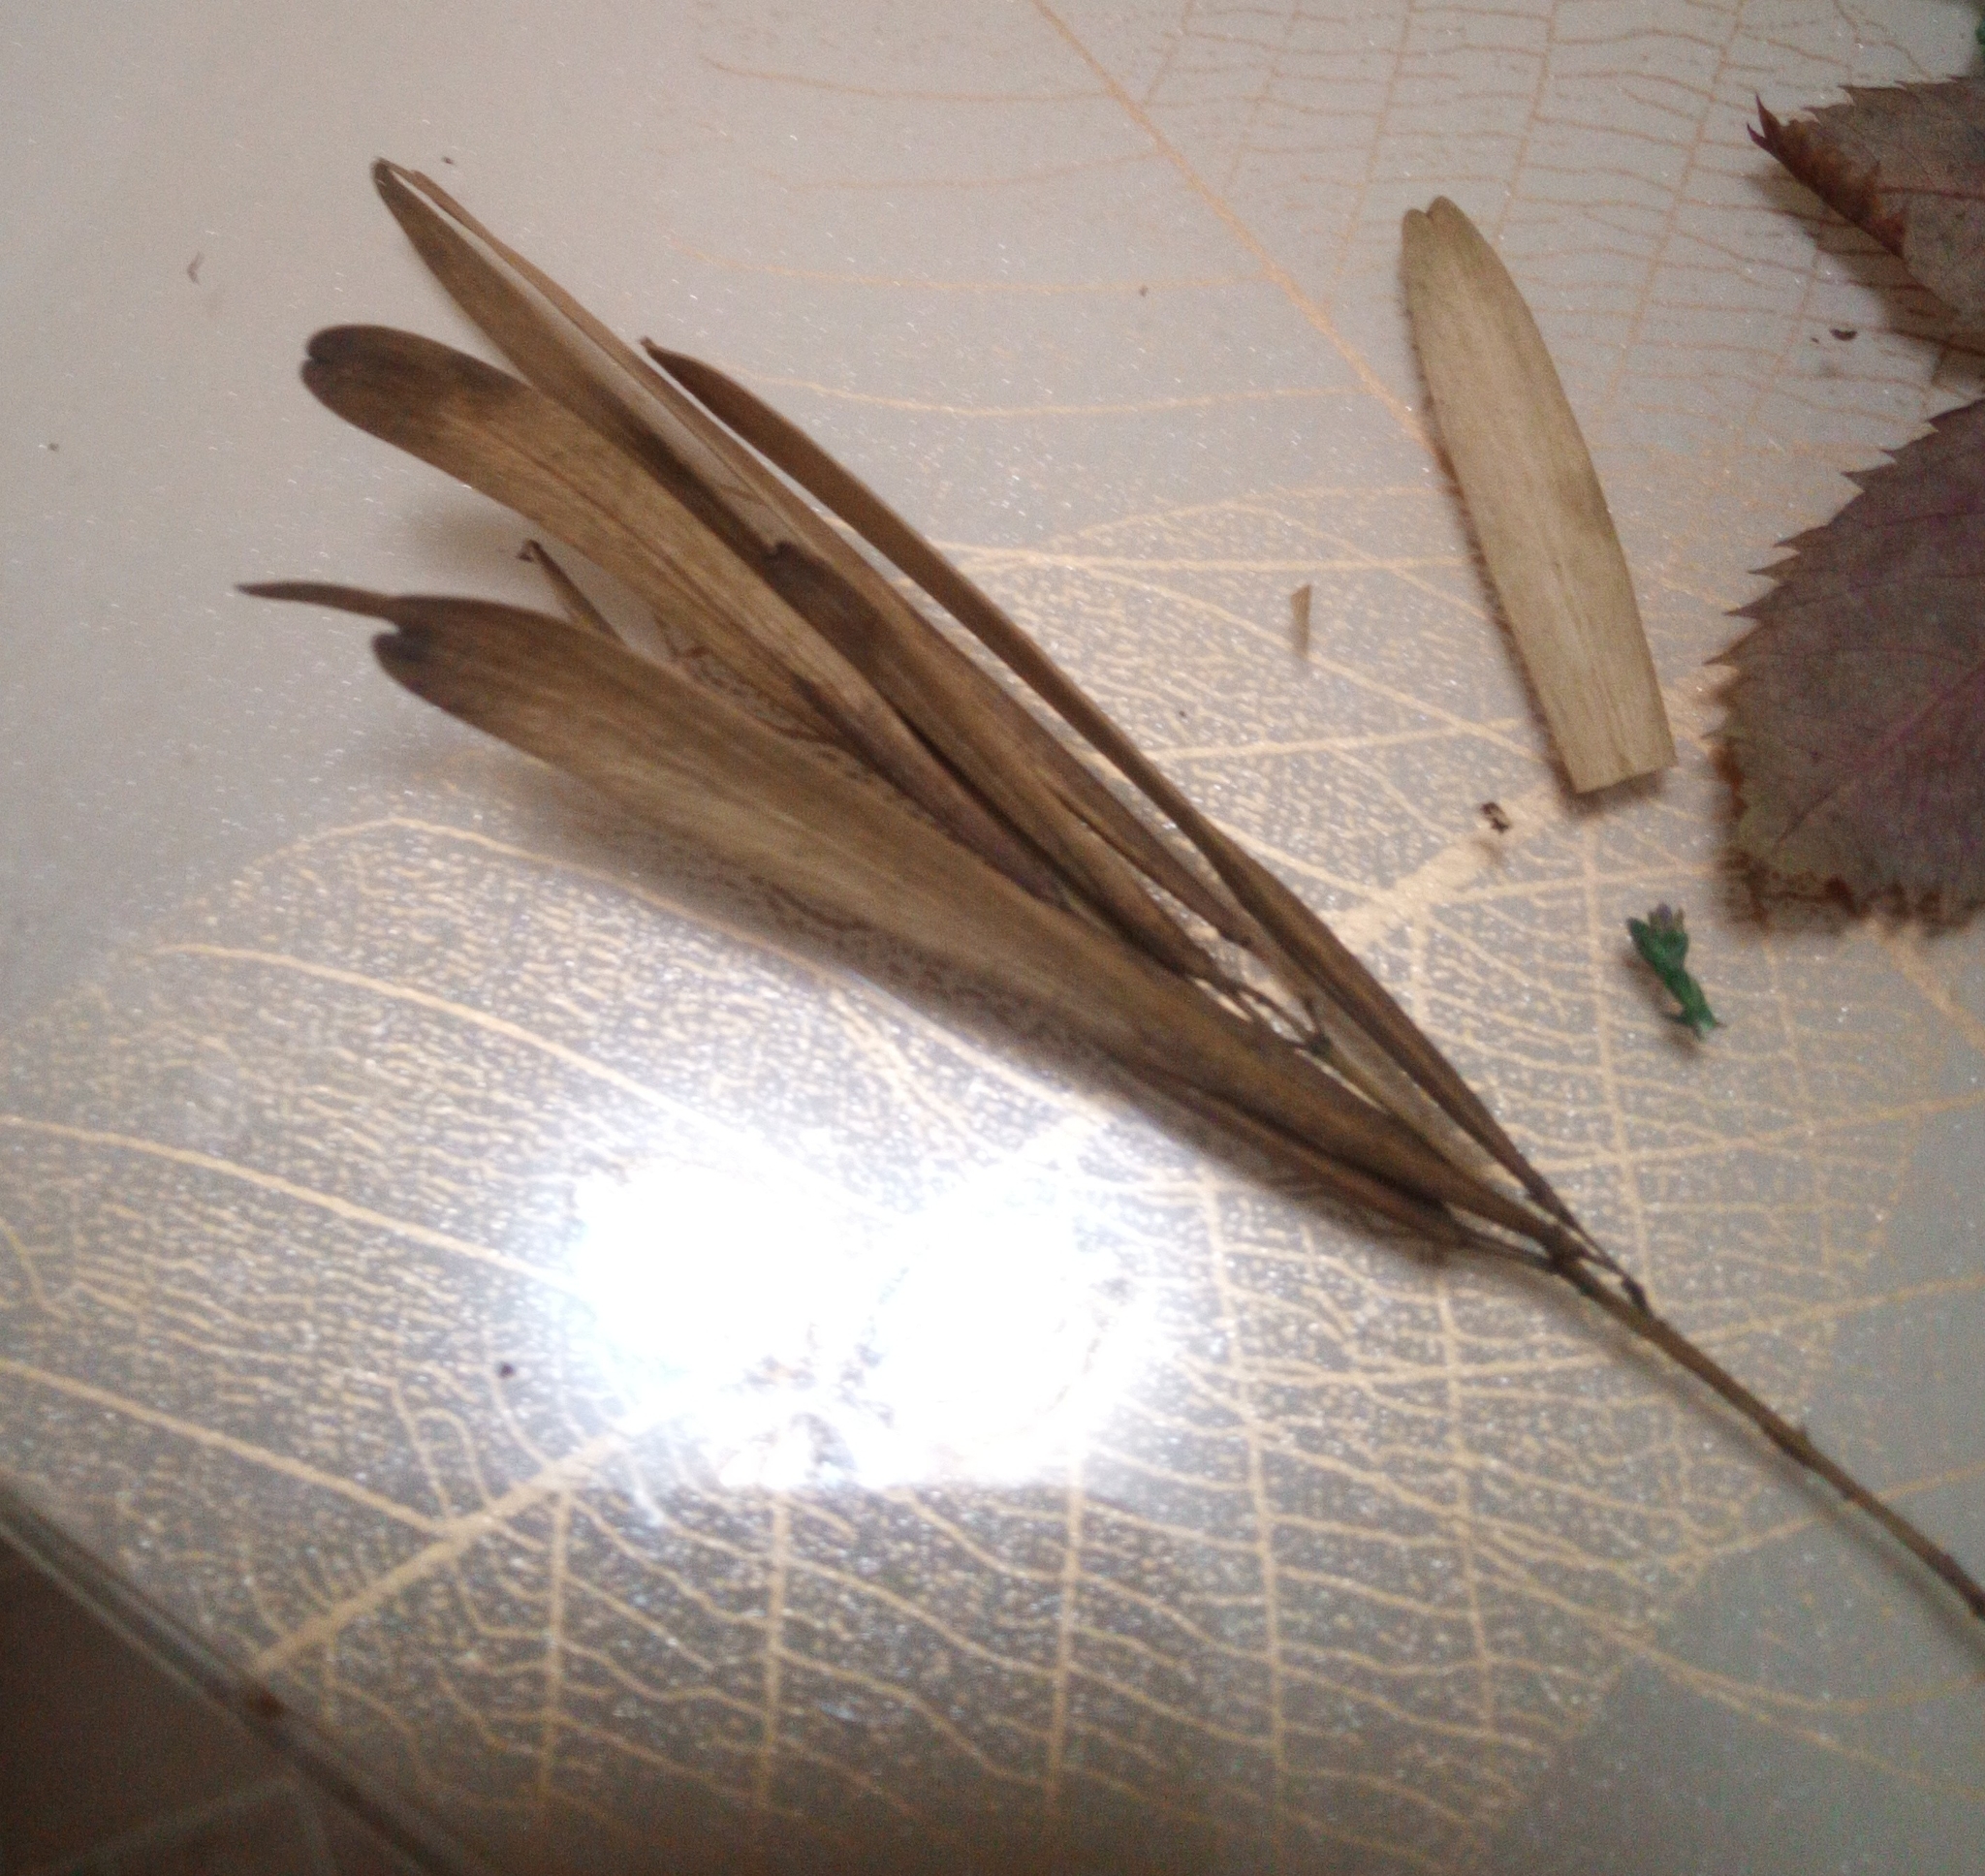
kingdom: Plantae
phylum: Tracheophyta
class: Magnoliopsida
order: Lamiales
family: Oleaceae
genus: Fraxinus
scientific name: Fraxinus pennsylvanica
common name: Green ash
